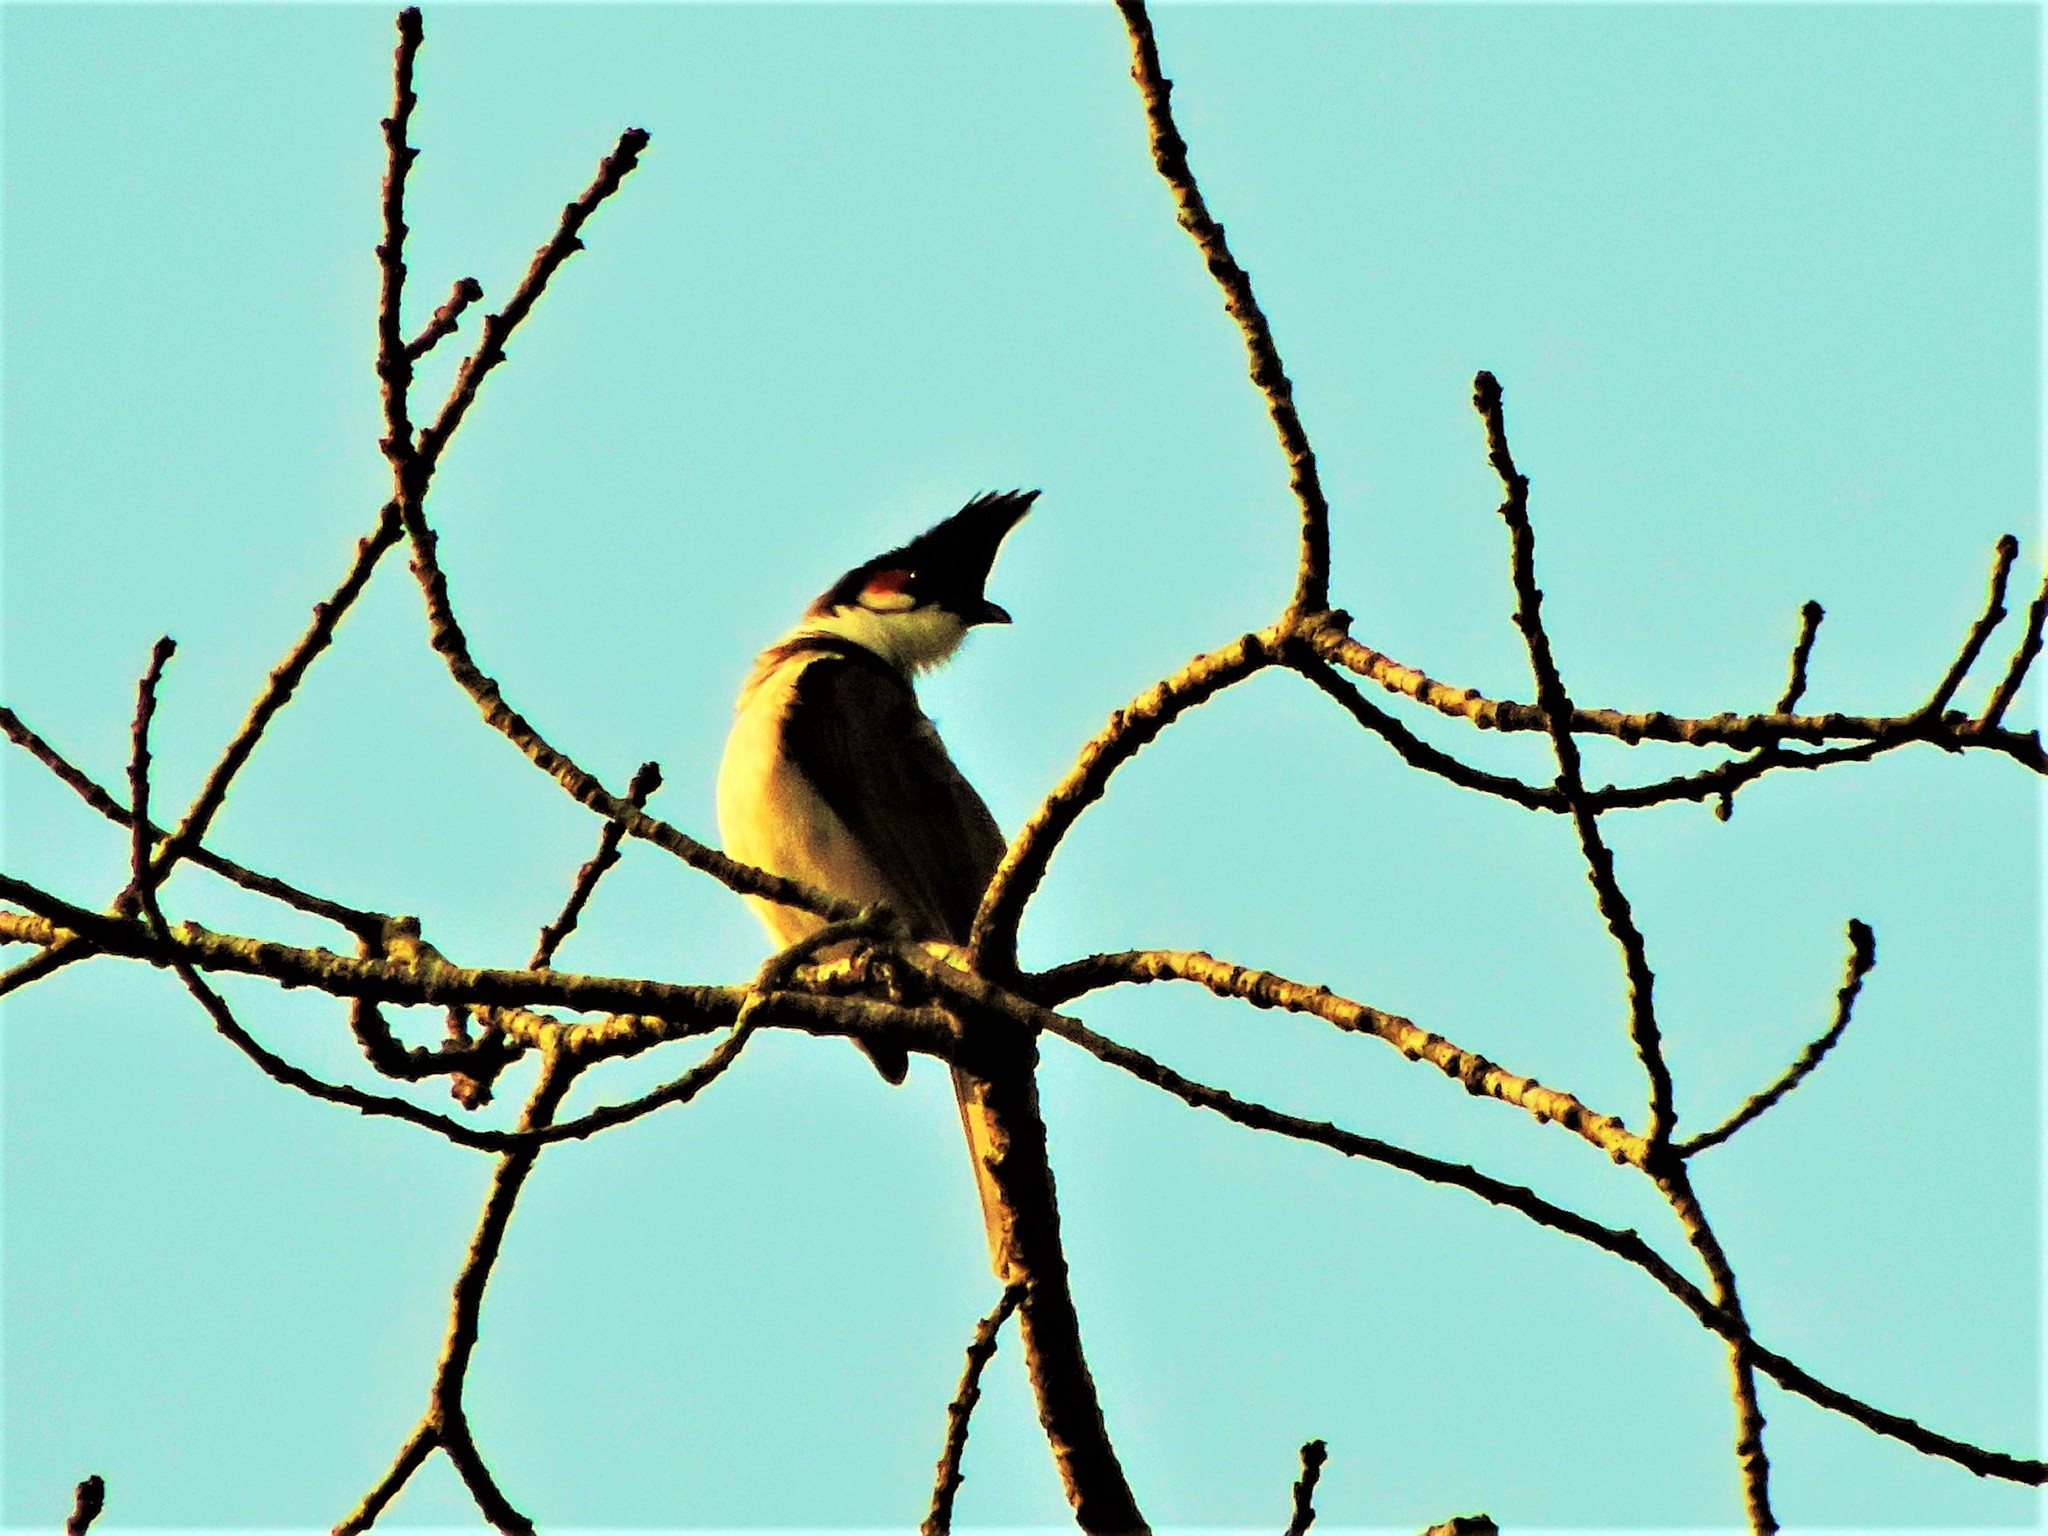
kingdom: Animalia
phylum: Chordata
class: Aves
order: Passeriformes
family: Pycnonotidae
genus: Pycnonotus
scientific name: Pycnonotus jocosus
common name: Red-whiskered bulbul
